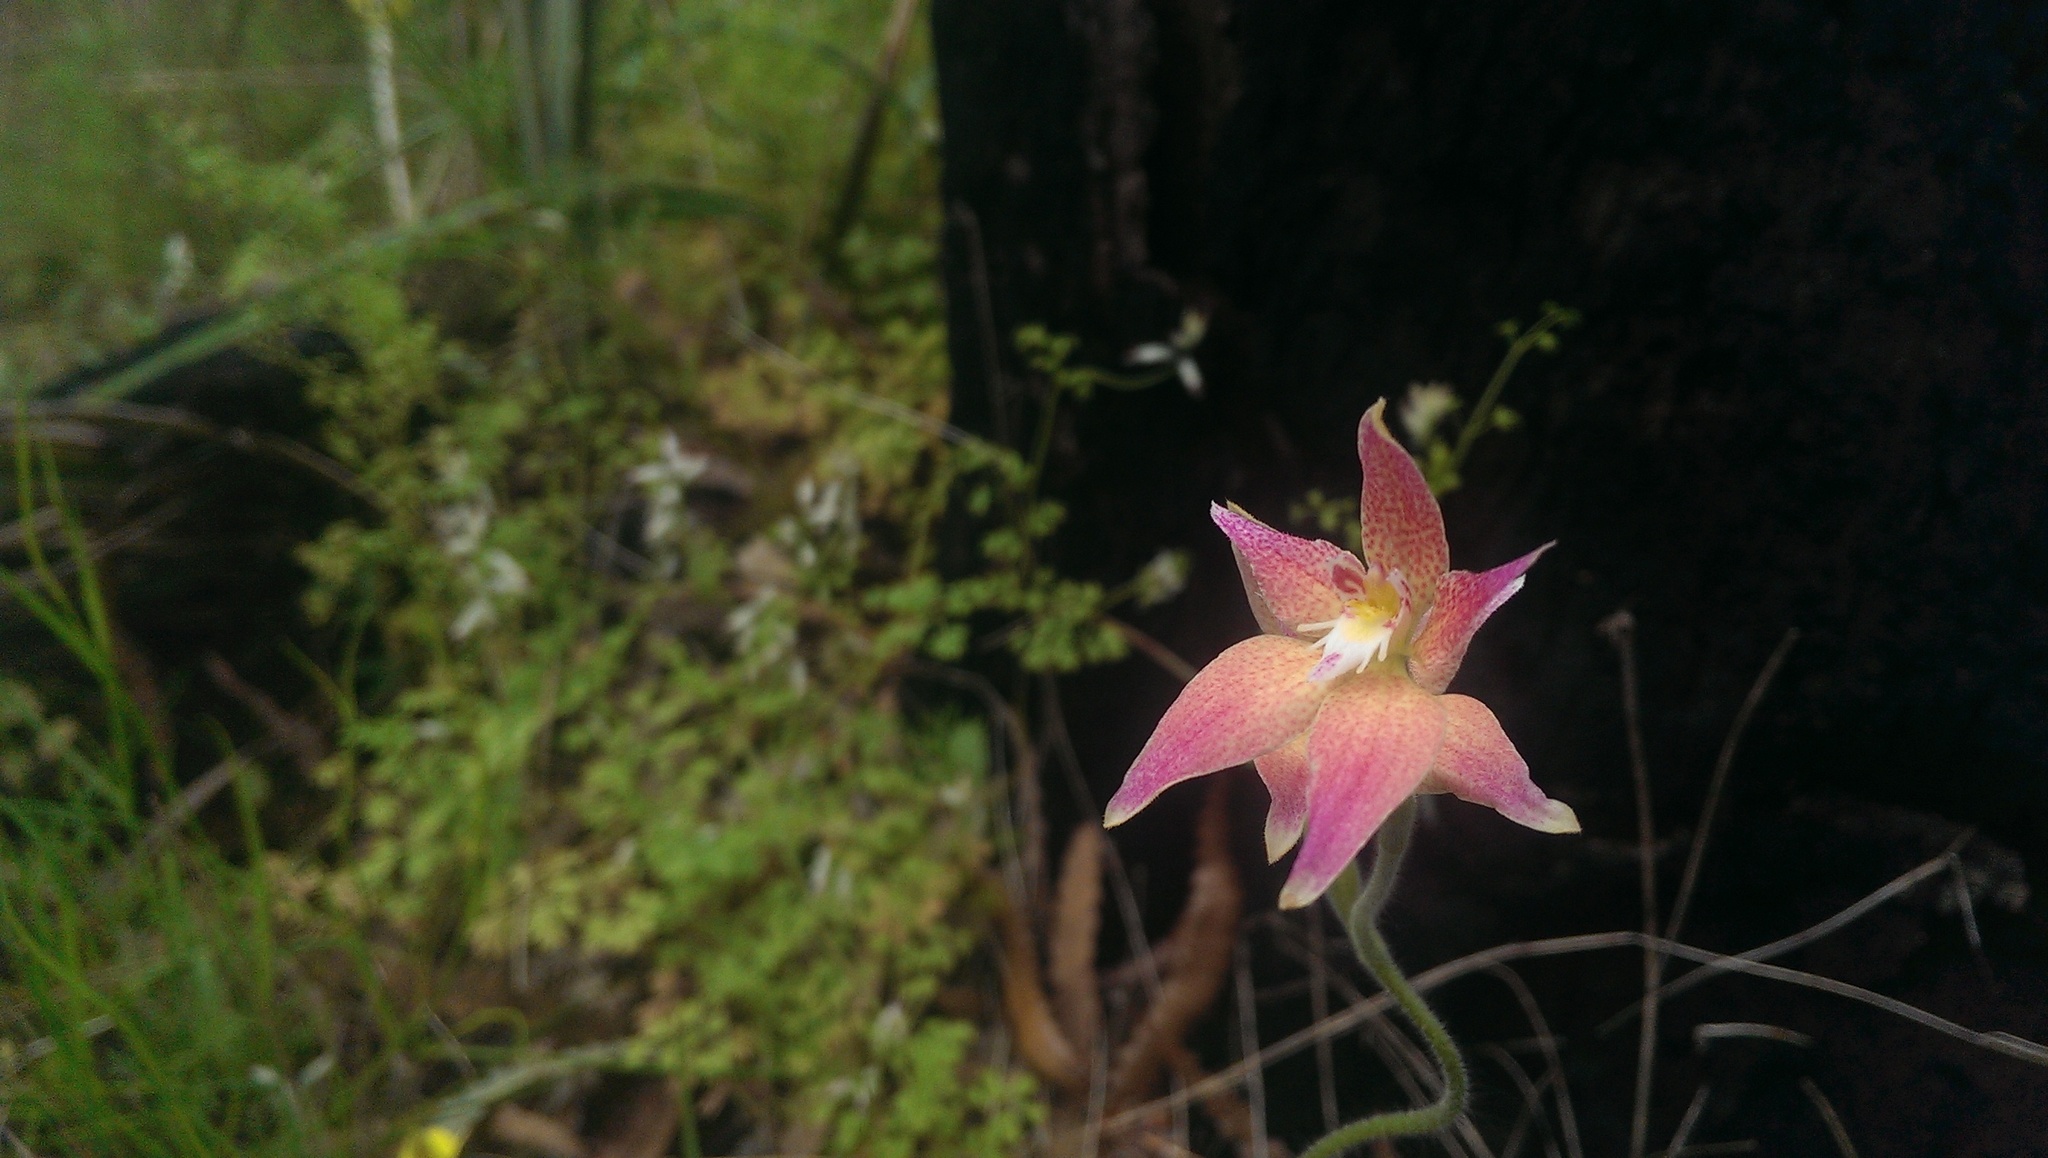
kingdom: Plantae
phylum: Tracheophyta
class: Liliopsida
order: Asparagales
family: Orchidaceae
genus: Caladenia
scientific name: Caladenia spectabilis
